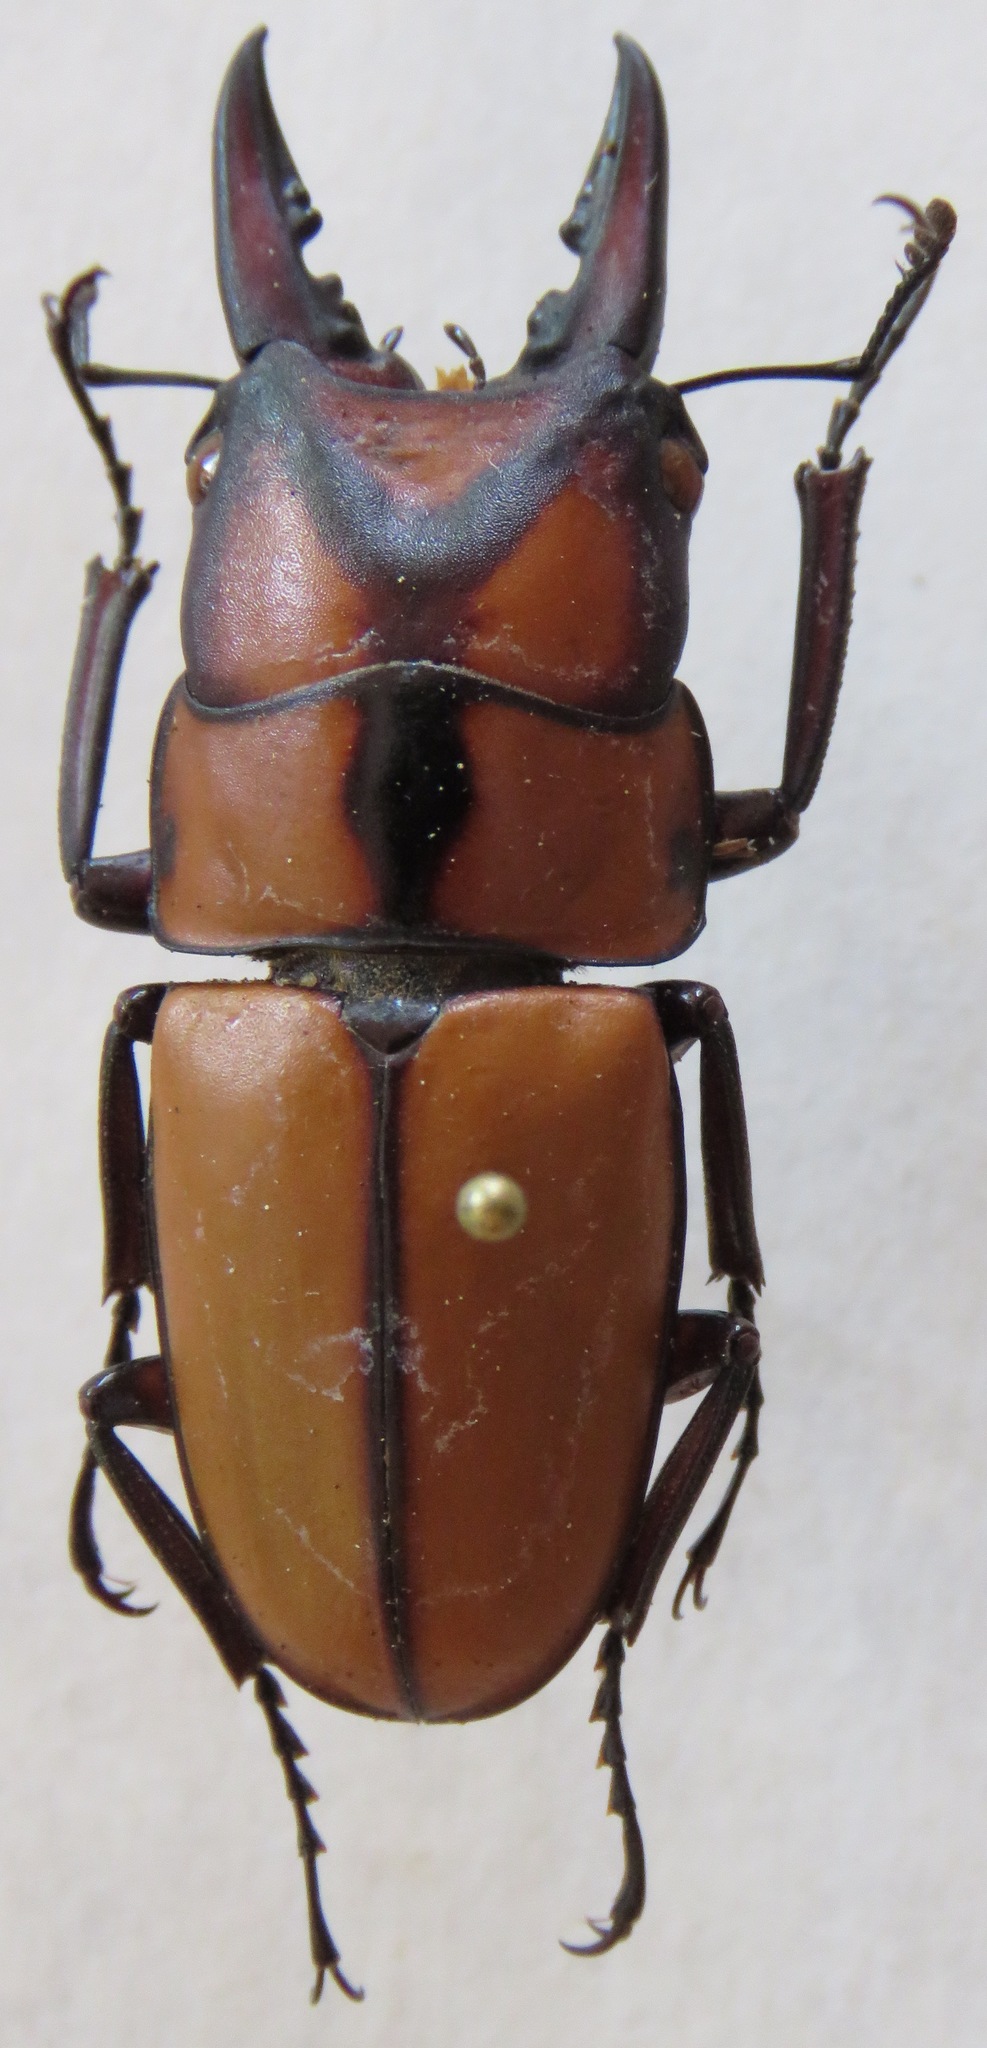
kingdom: Animalia
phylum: Arthropoda
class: Insecta
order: Coleoptera
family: Lucanidae
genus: Prosopocoilus
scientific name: Prosopocoilus suturalis
